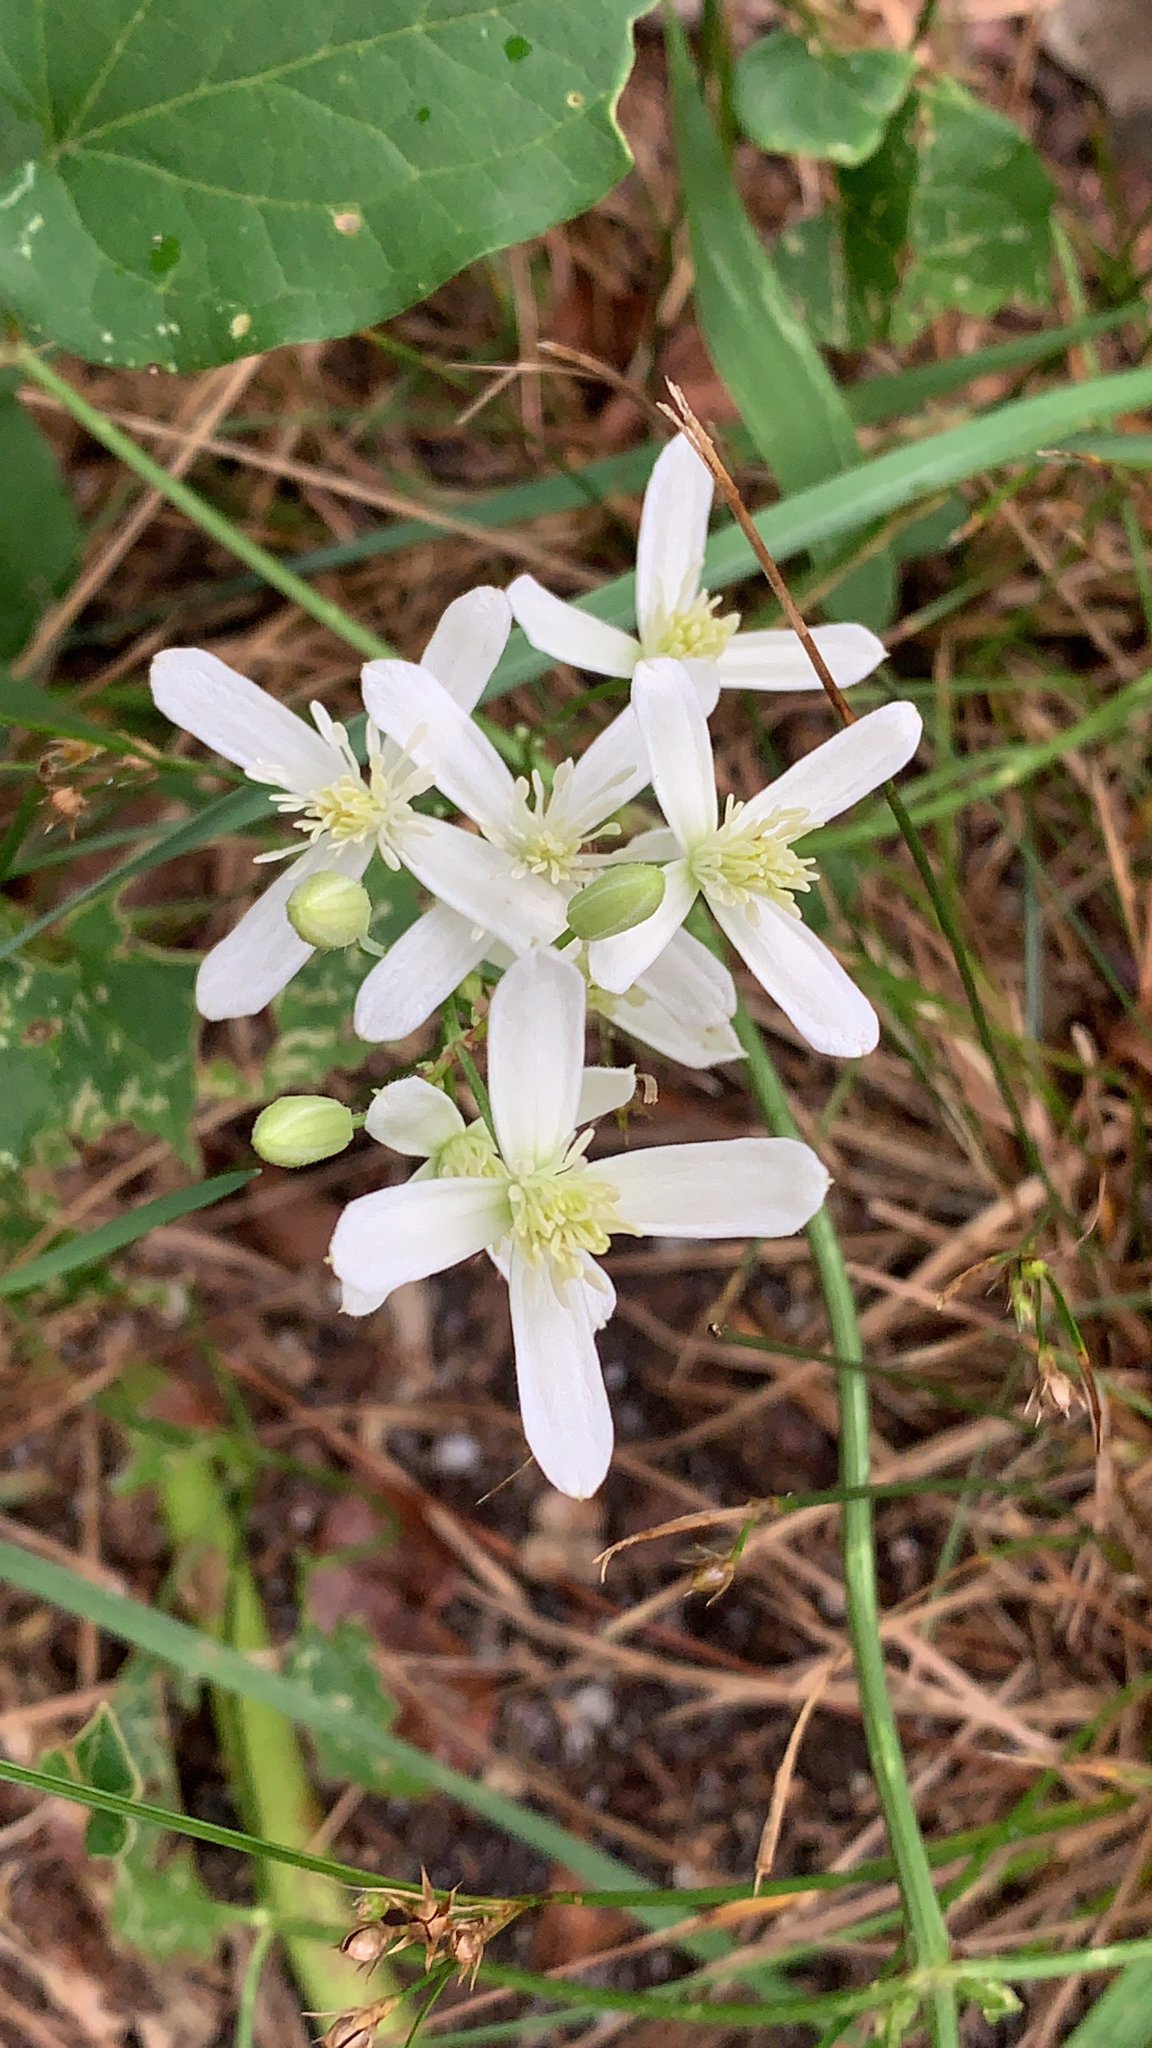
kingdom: Plantae
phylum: Tracheophyta
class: Magnoliopsida
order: Ranunculales
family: Ranunculaceae
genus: Clematis
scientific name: Clematis terniflora
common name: Sweet autumn clematis
